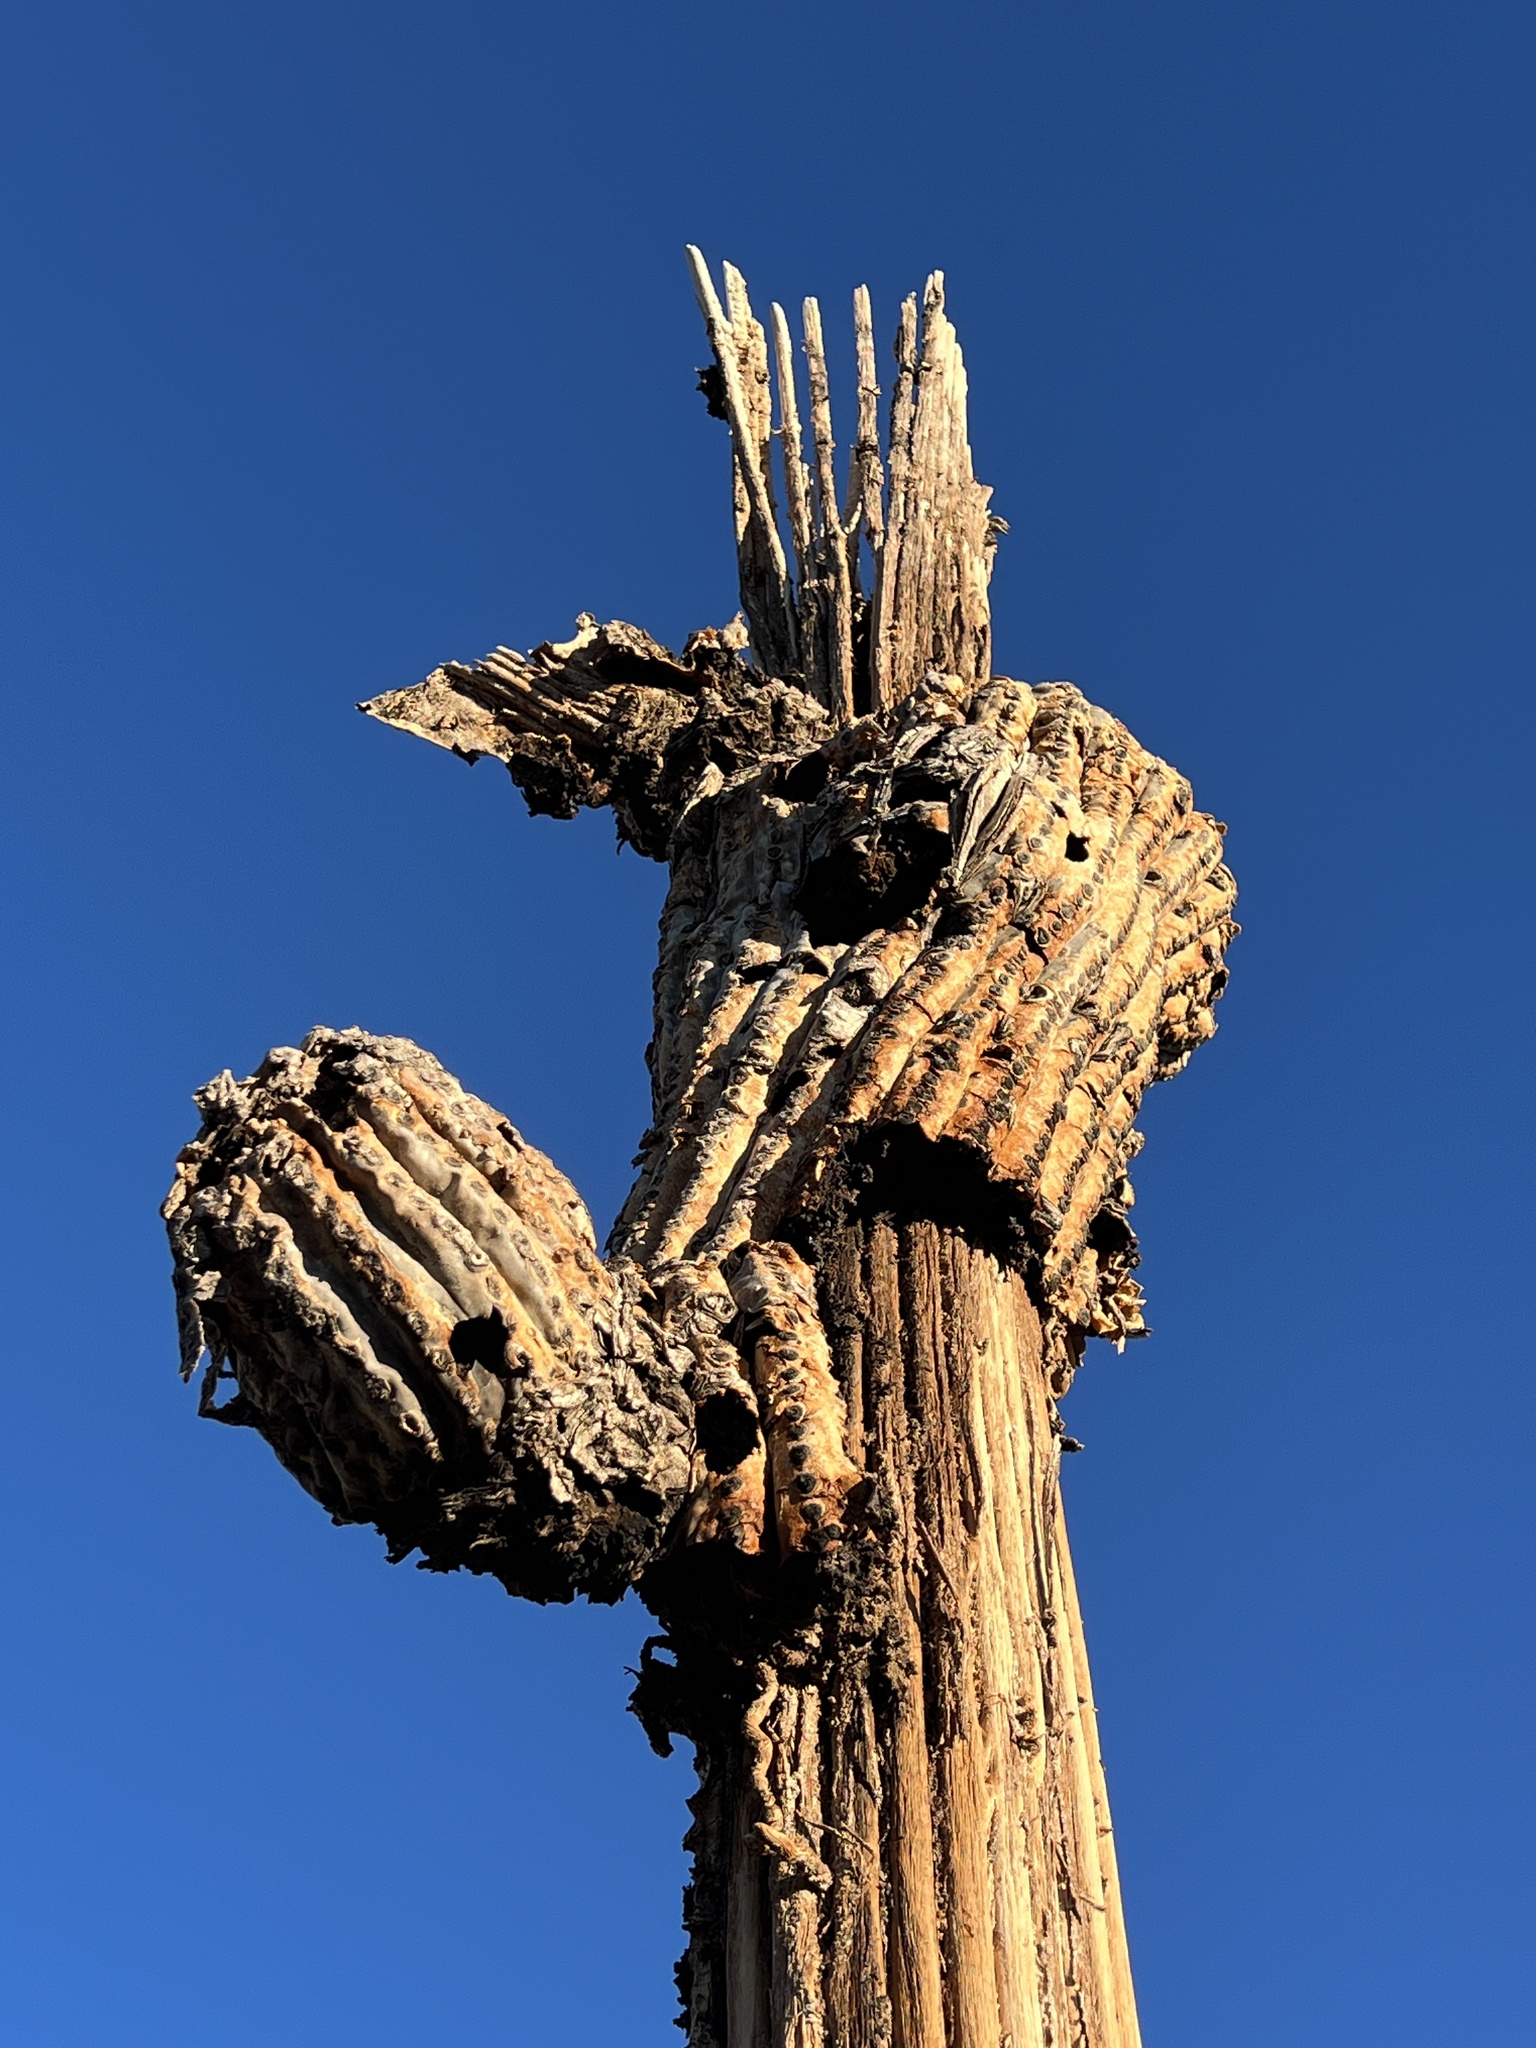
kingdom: Plantae
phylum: Tracheophyta
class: Magnoliopsida
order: Caryophyllales
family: Cactaceae
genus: Carnegiea
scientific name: Carnegiea gigantea
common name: Saguaro
